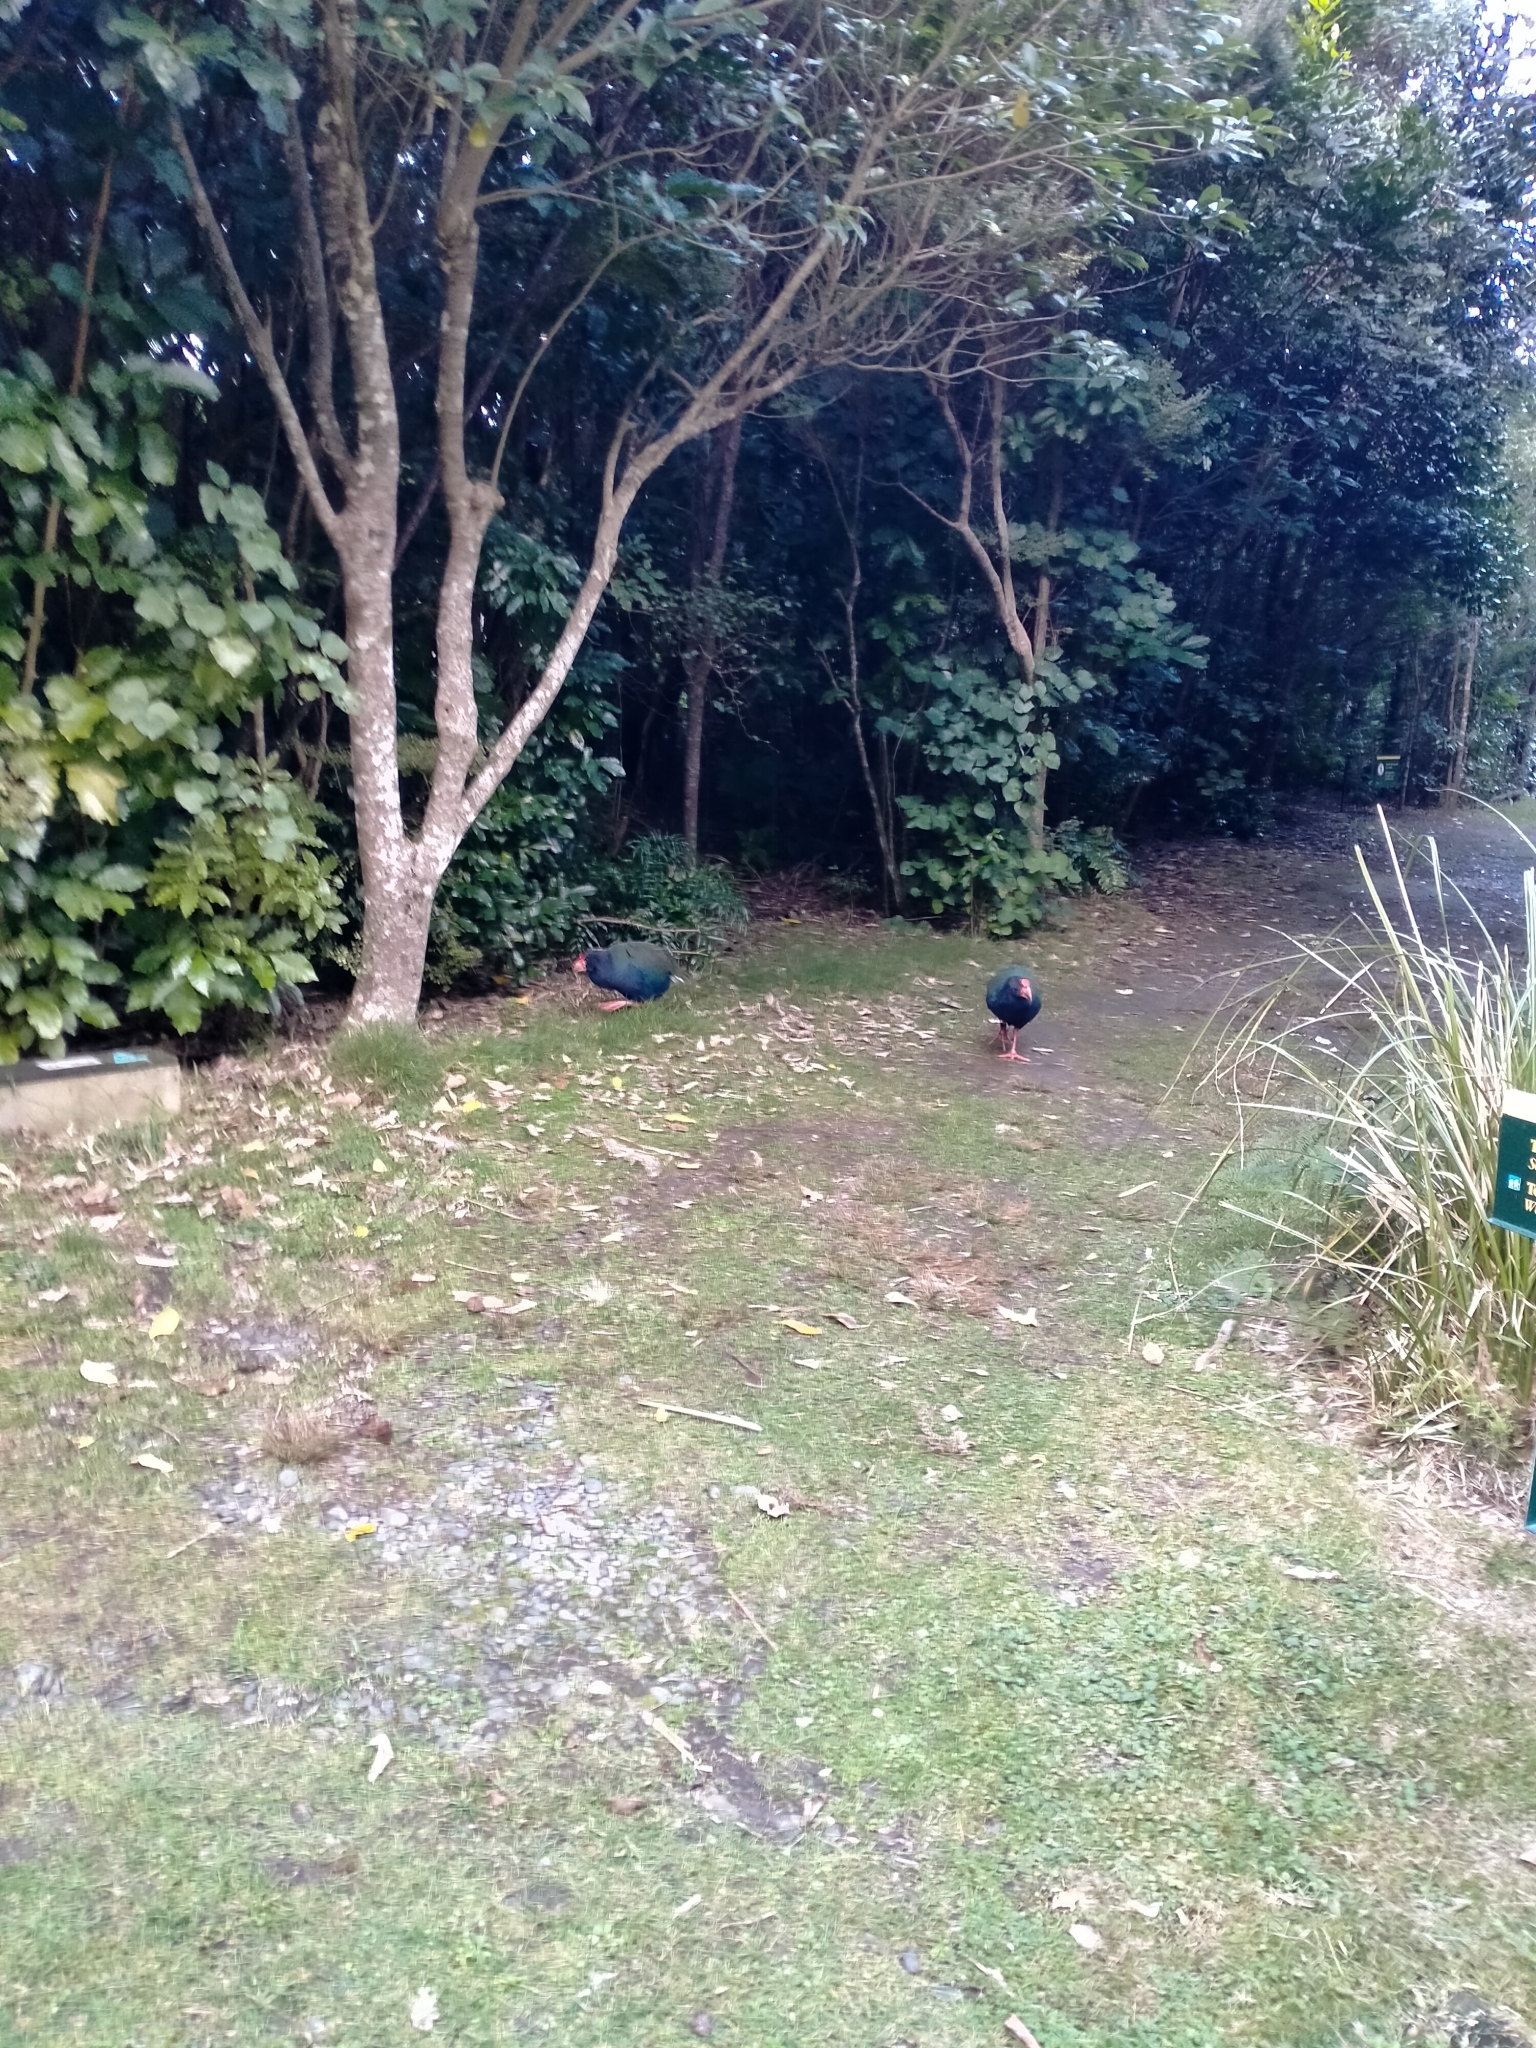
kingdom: Animalia
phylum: Chordata
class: Aves
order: Gruiformes
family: Rallidae
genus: Porphyrio
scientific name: Porphyrio hochstetteri
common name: South island takahe
